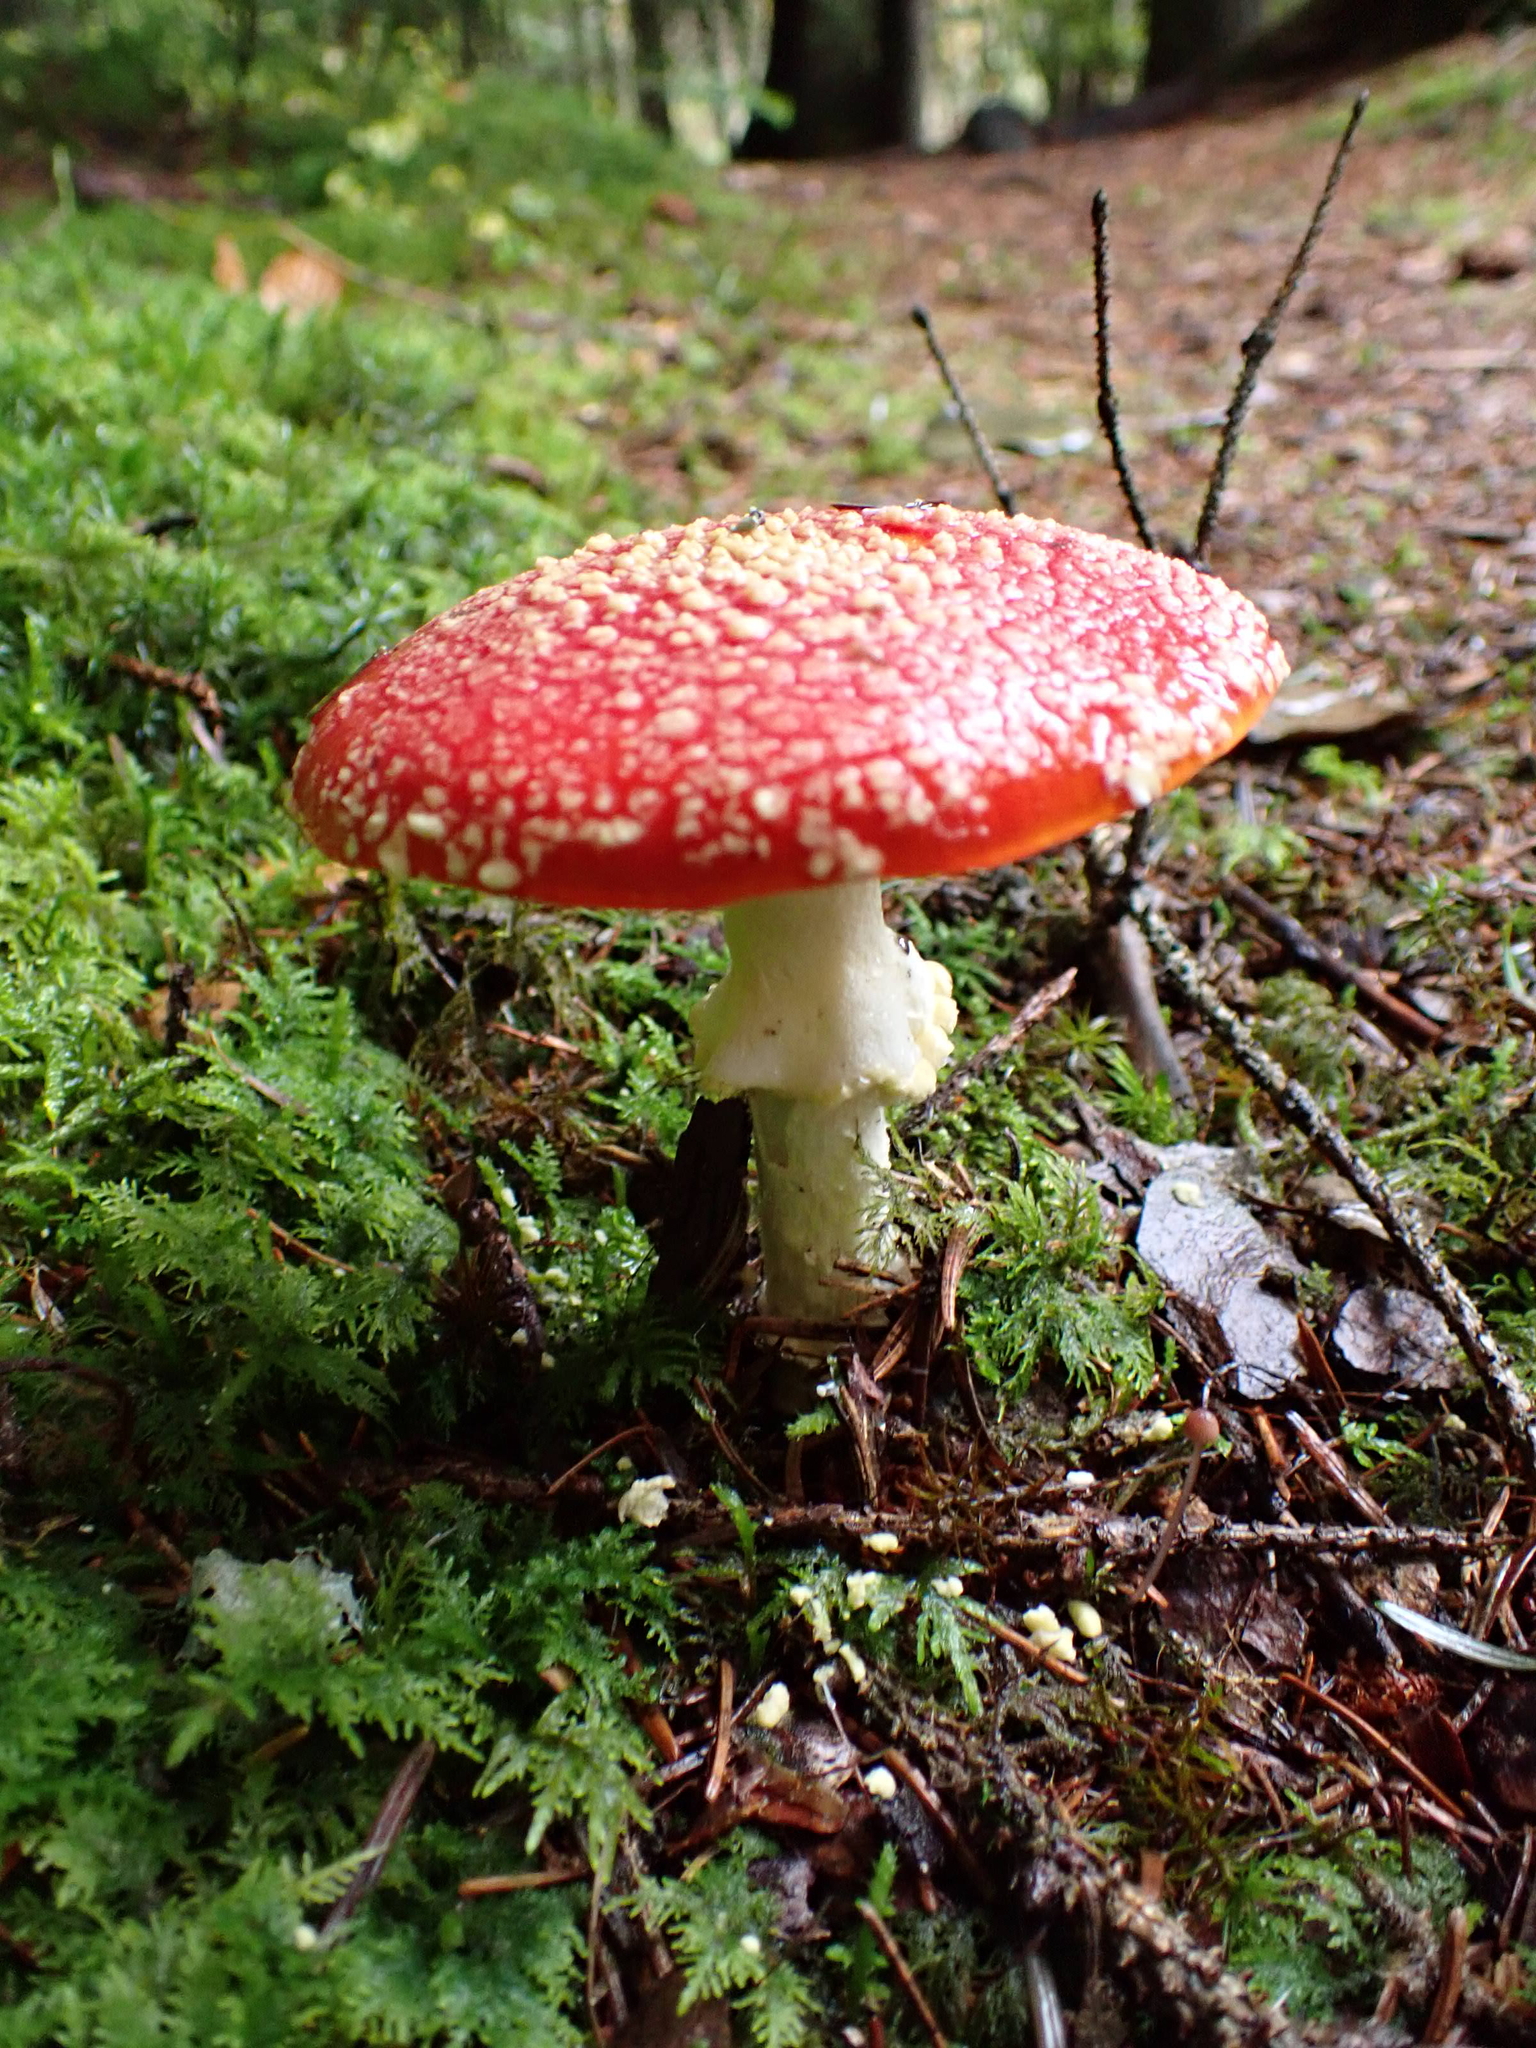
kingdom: Fungi
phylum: Basidiomycota
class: Agaricomycetes
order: Agaricales
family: Amanitaceae
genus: Amanita
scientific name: Amanita muscaria
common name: Fly agaric
